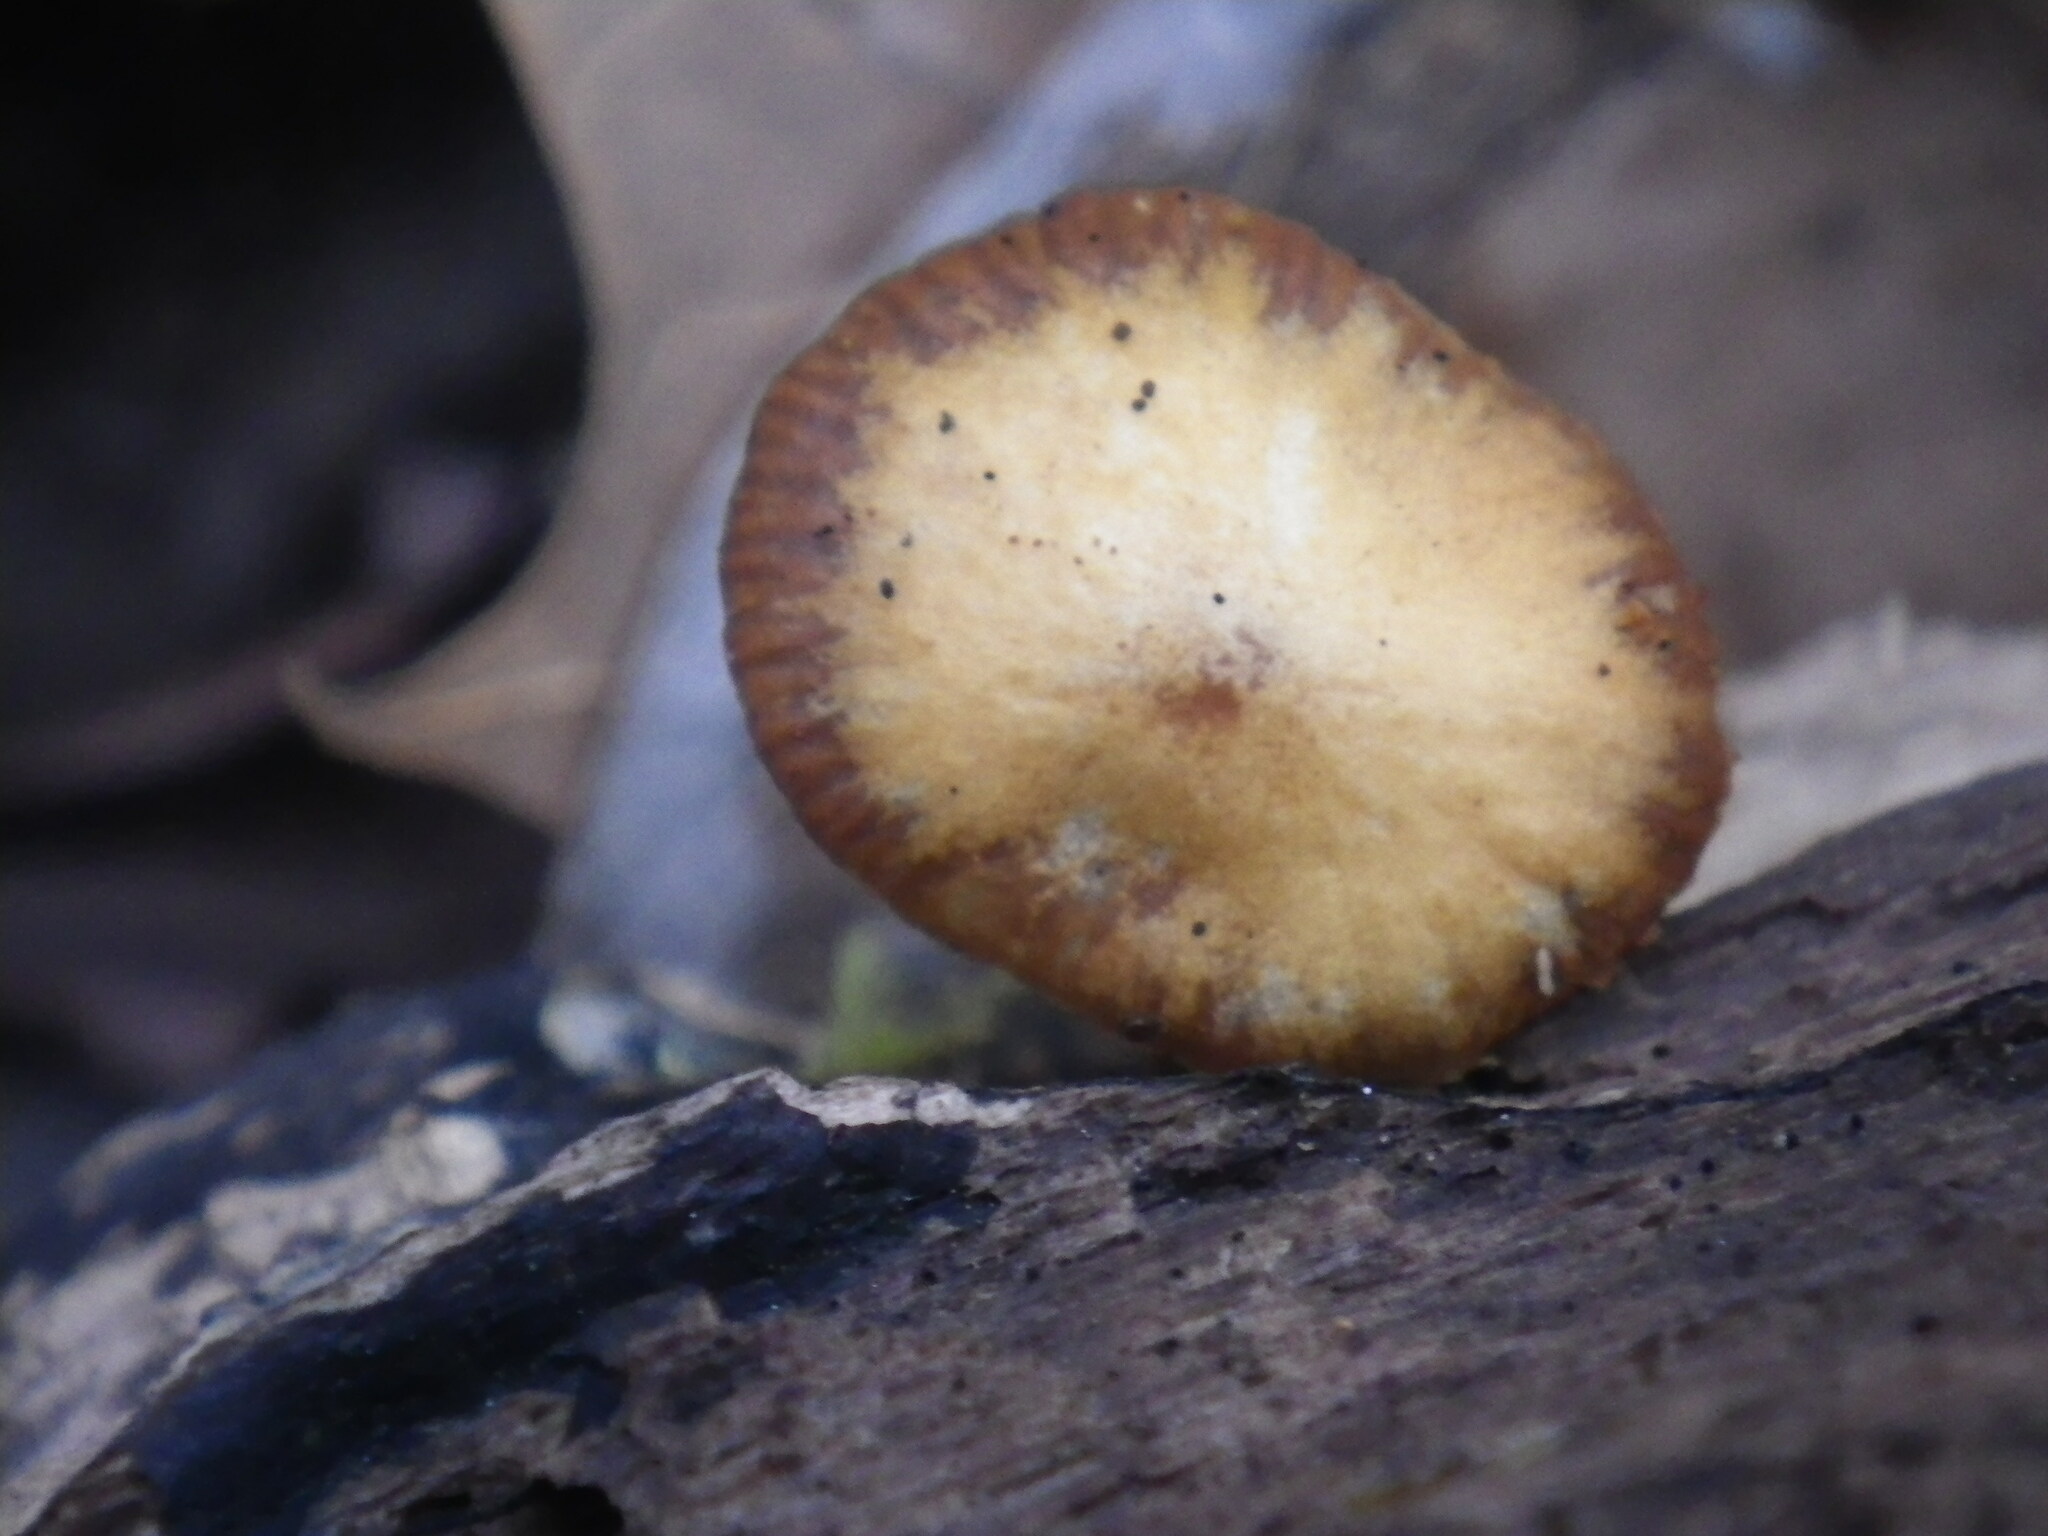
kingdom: Fungi
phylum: Basidiomycota
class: Agaricomycetes
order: Agaricales
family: Hymenogastraceae
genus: Galerina
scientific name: Galerina marginata
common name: Funeral bell
